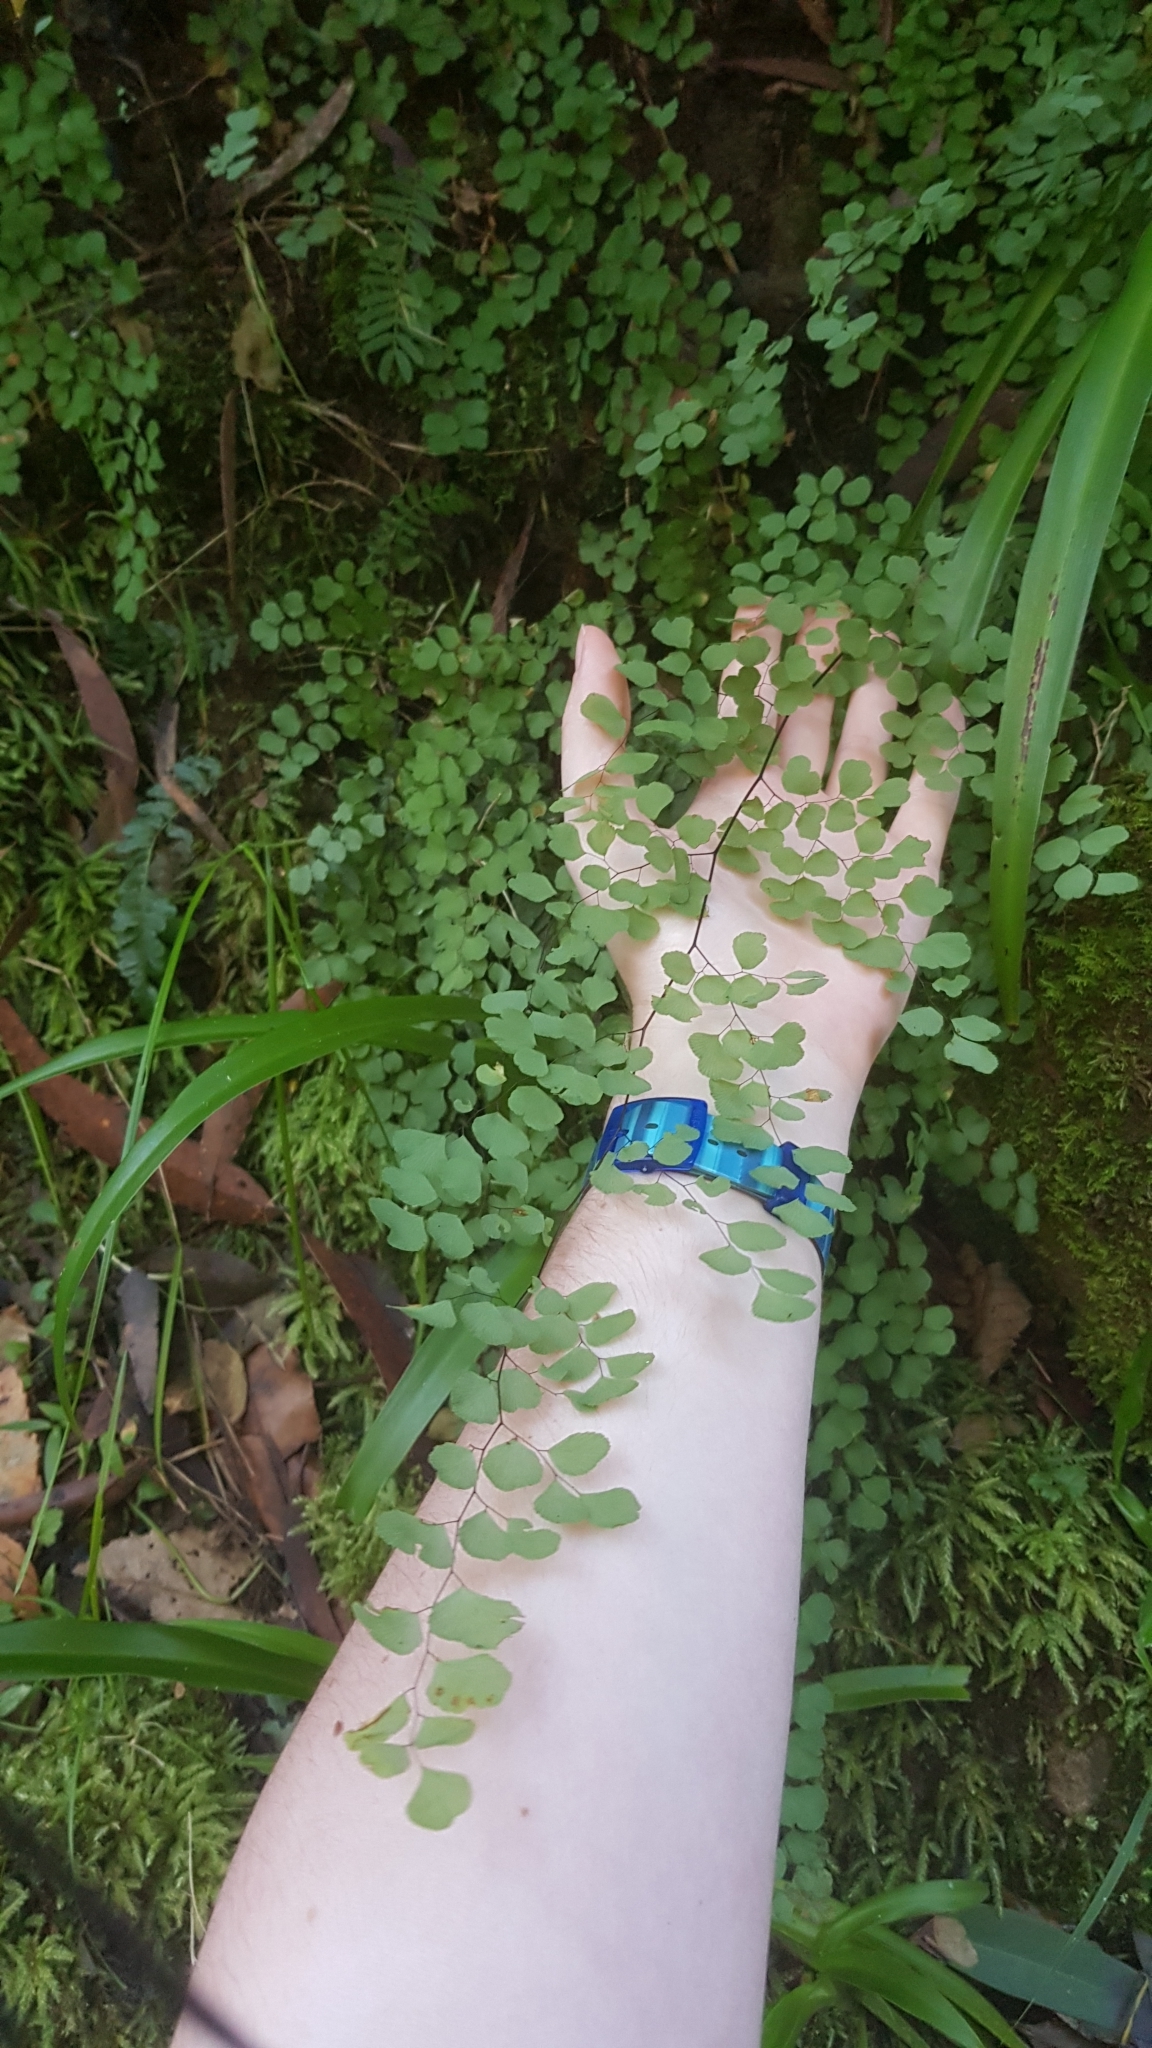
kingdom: Plantae
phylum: Tracheophyta
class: Polypodiopsida
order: Polypodiales
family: Pteridaceae
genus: Adiantum
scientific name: Adiantum aethiopicum
